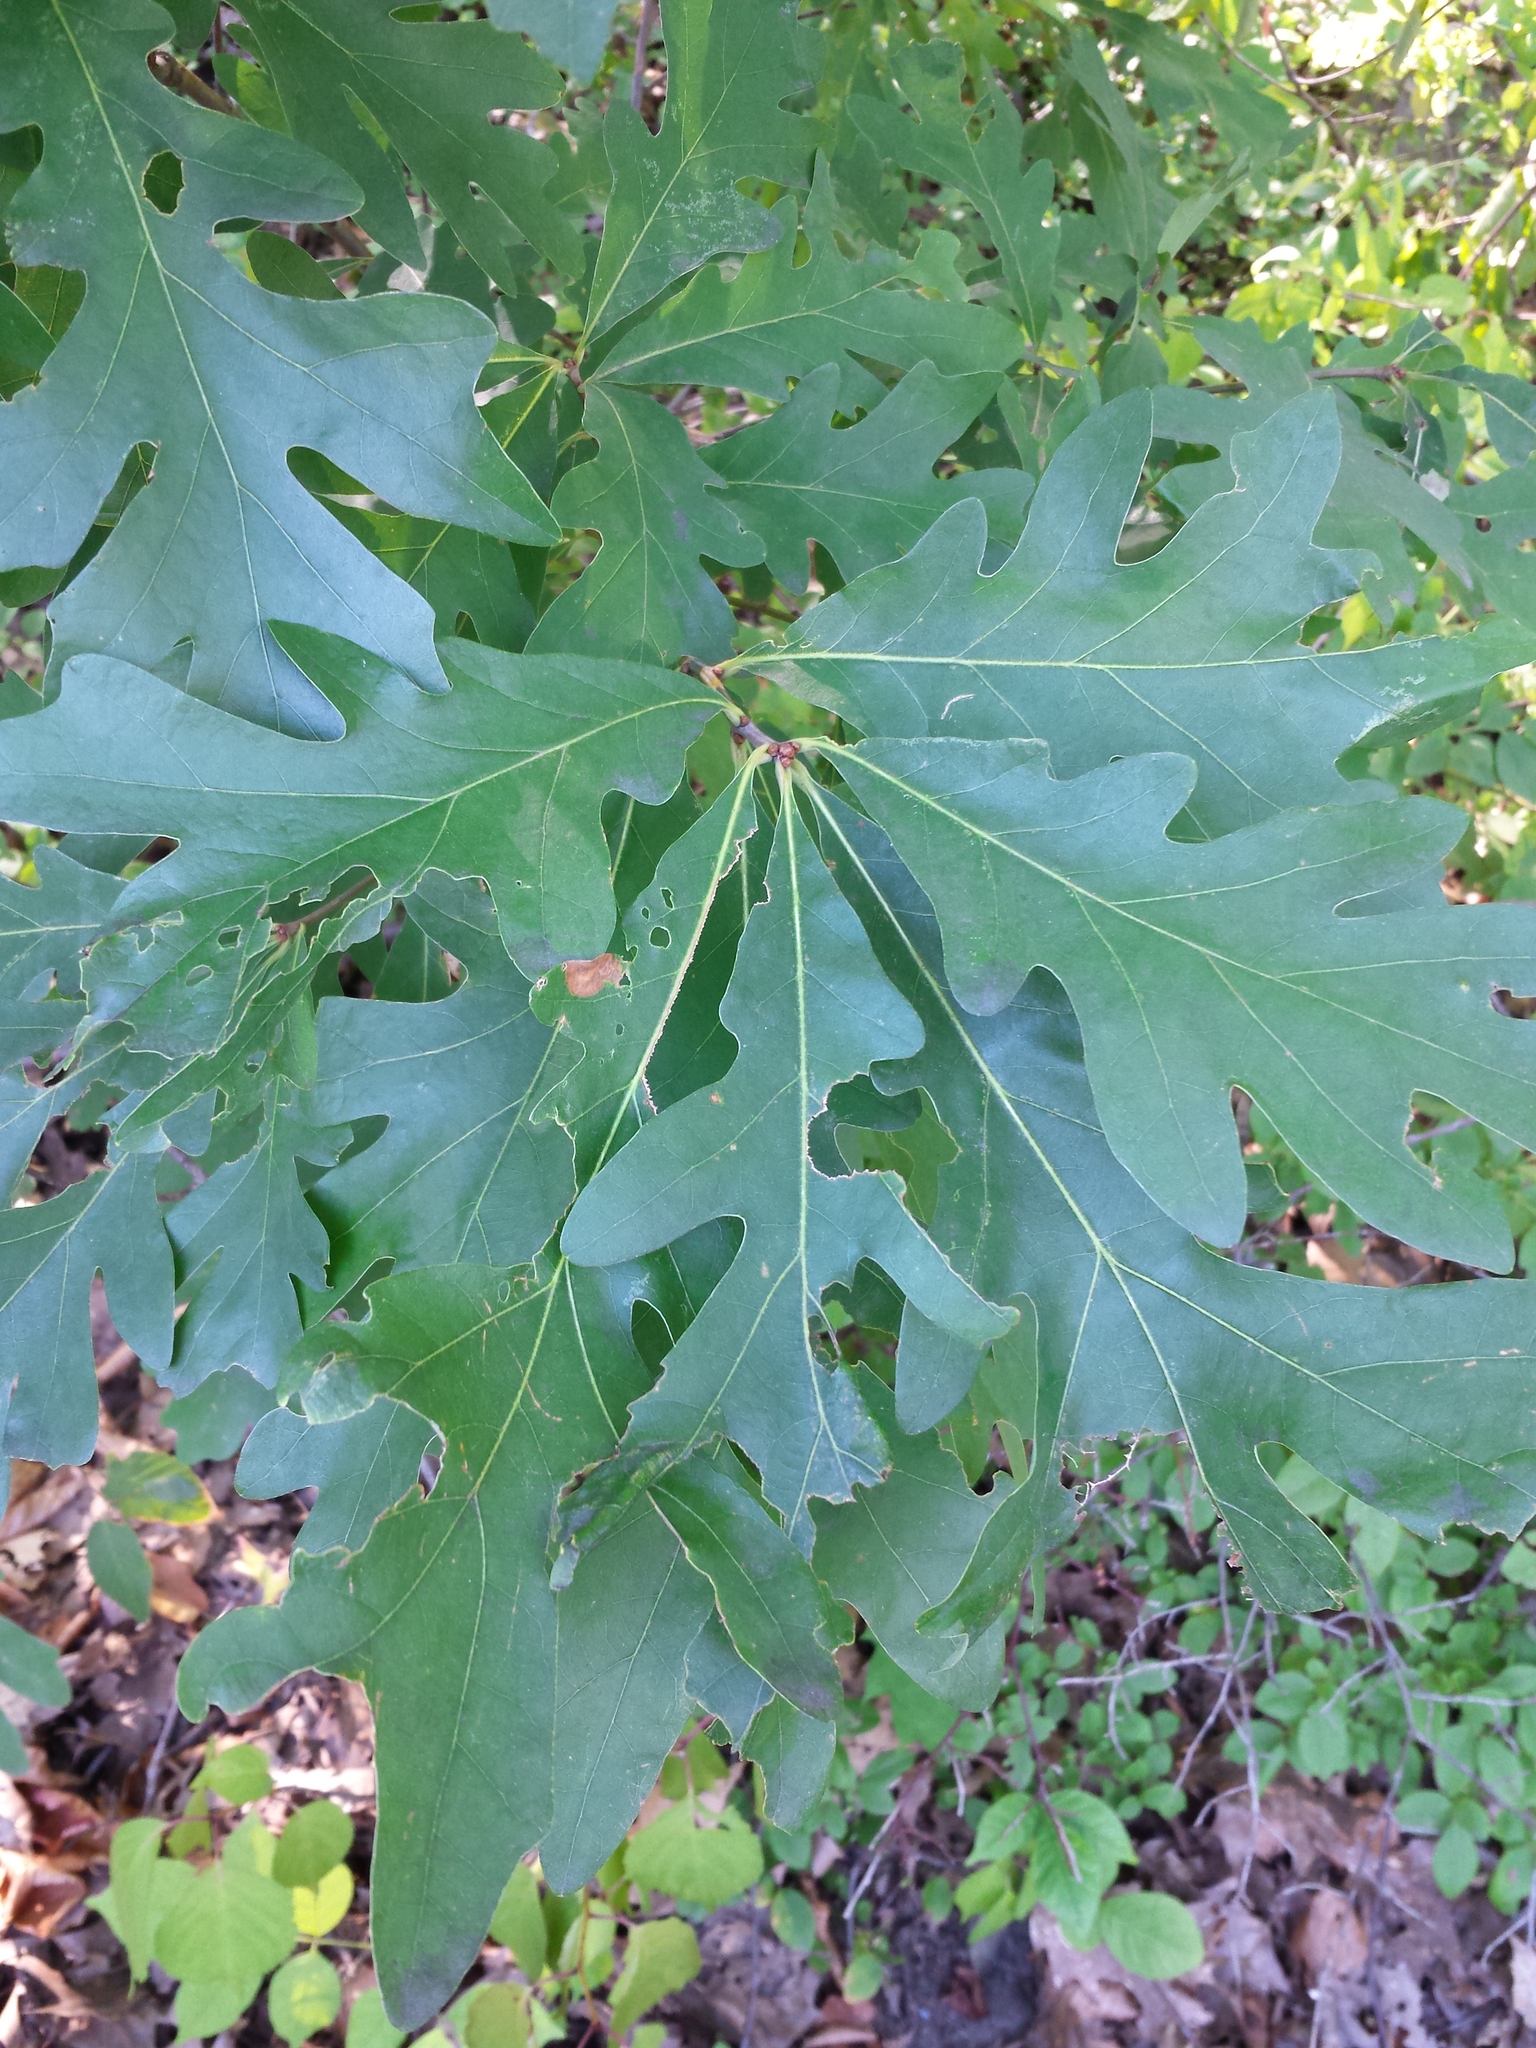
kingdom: Plantae
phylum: Tracheophyta
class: Magnoliopsida
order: Fagales
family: Fagaceae
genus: Quercus
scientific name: Quercus alba
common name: White oak
